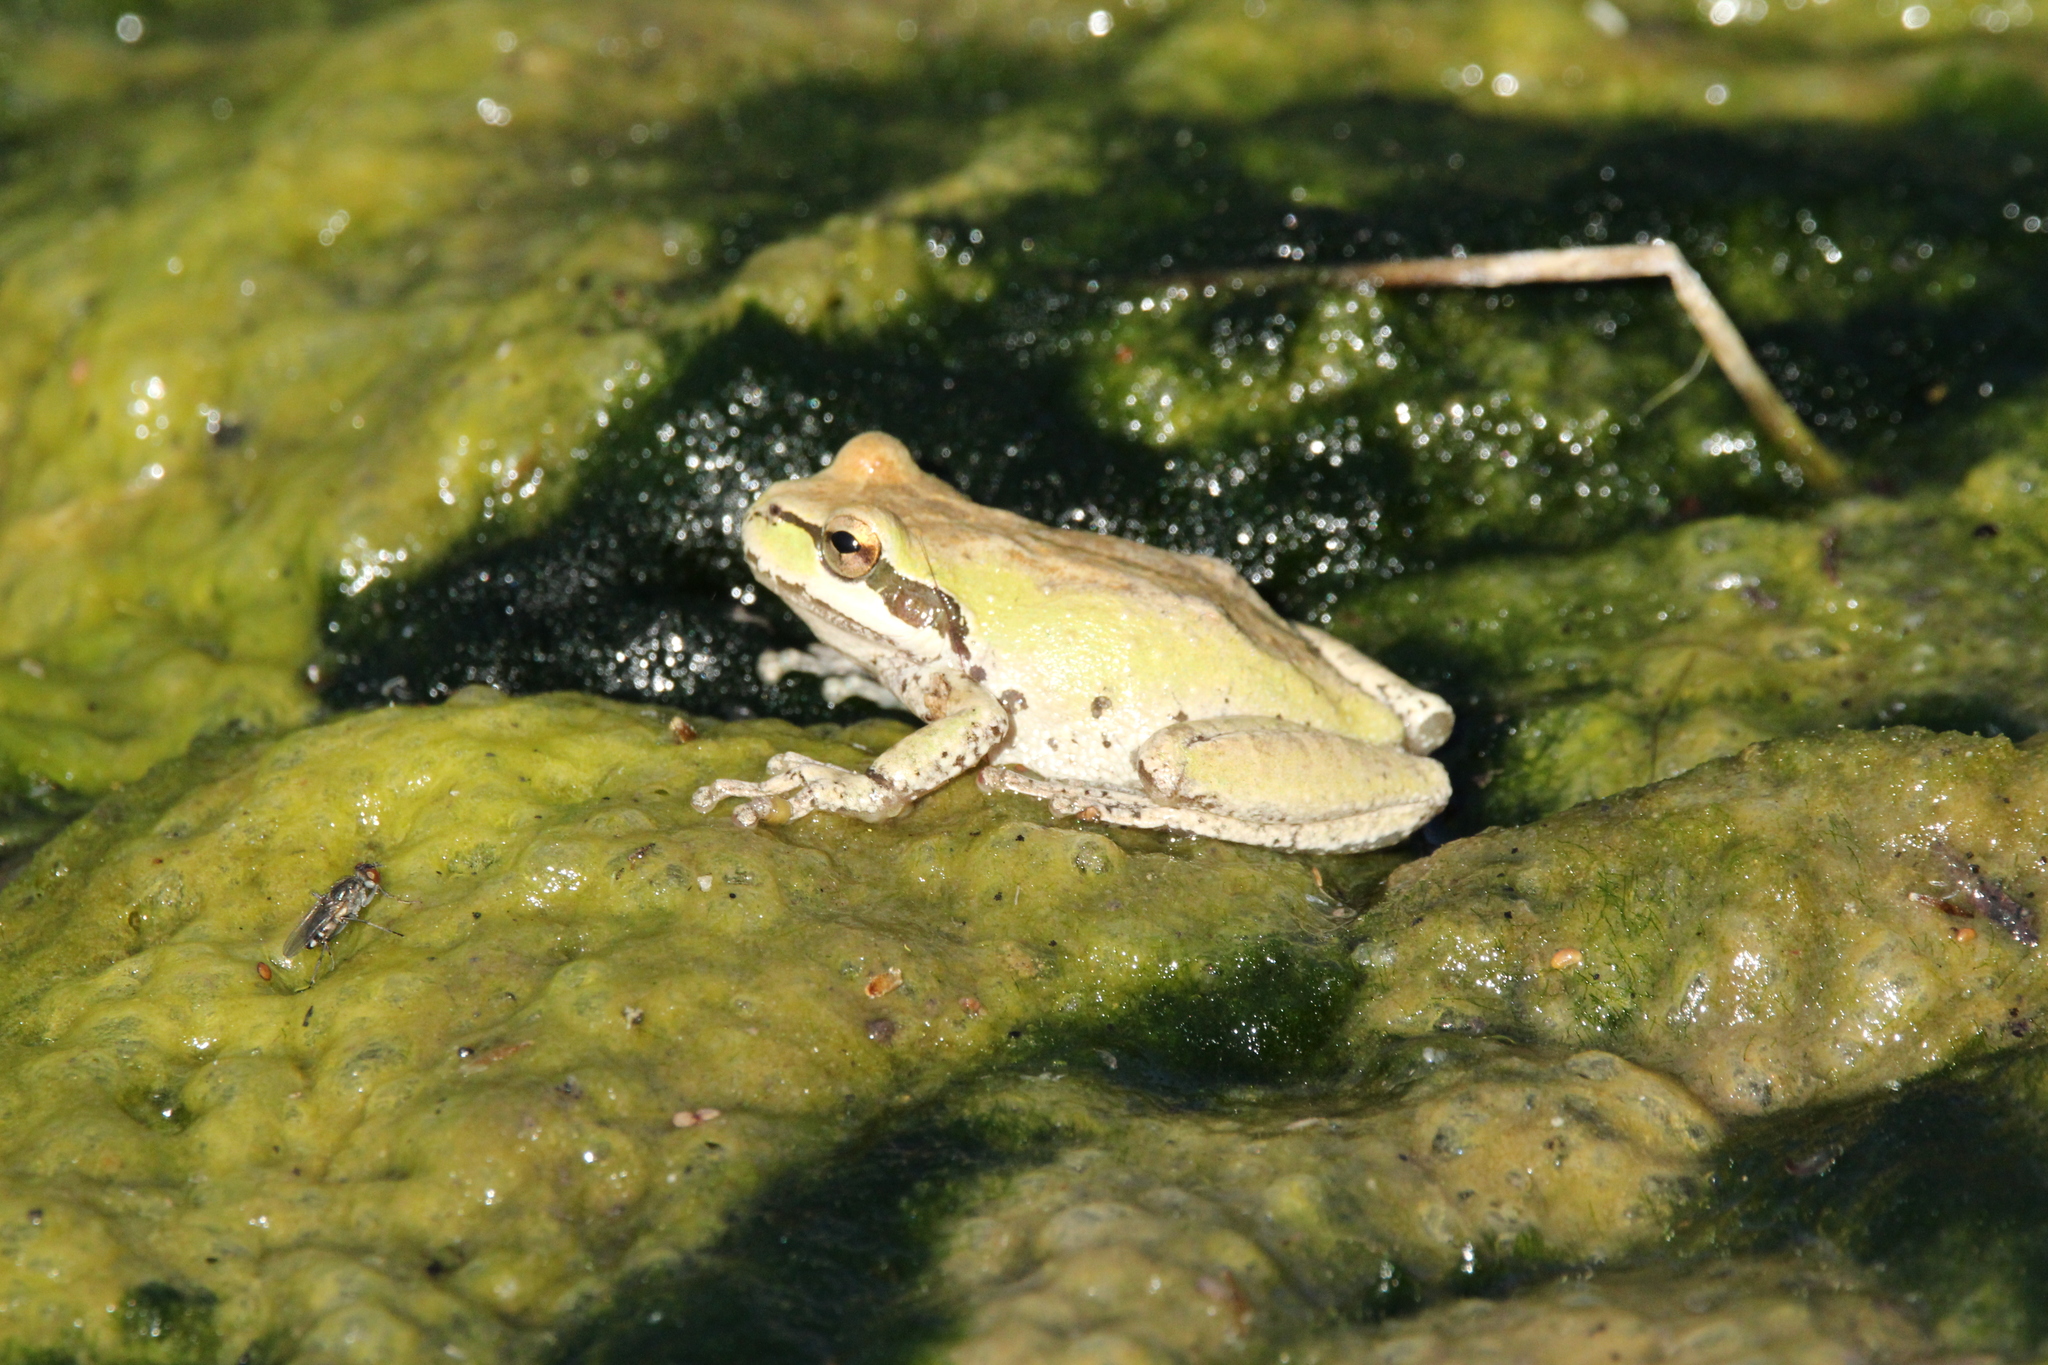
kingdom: Animalia
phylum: Chordata
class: Amphibia
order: Anura
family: Hylidae
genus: Pseudacris
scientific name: Pseudacris regilla
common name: Pacific chorus frog
